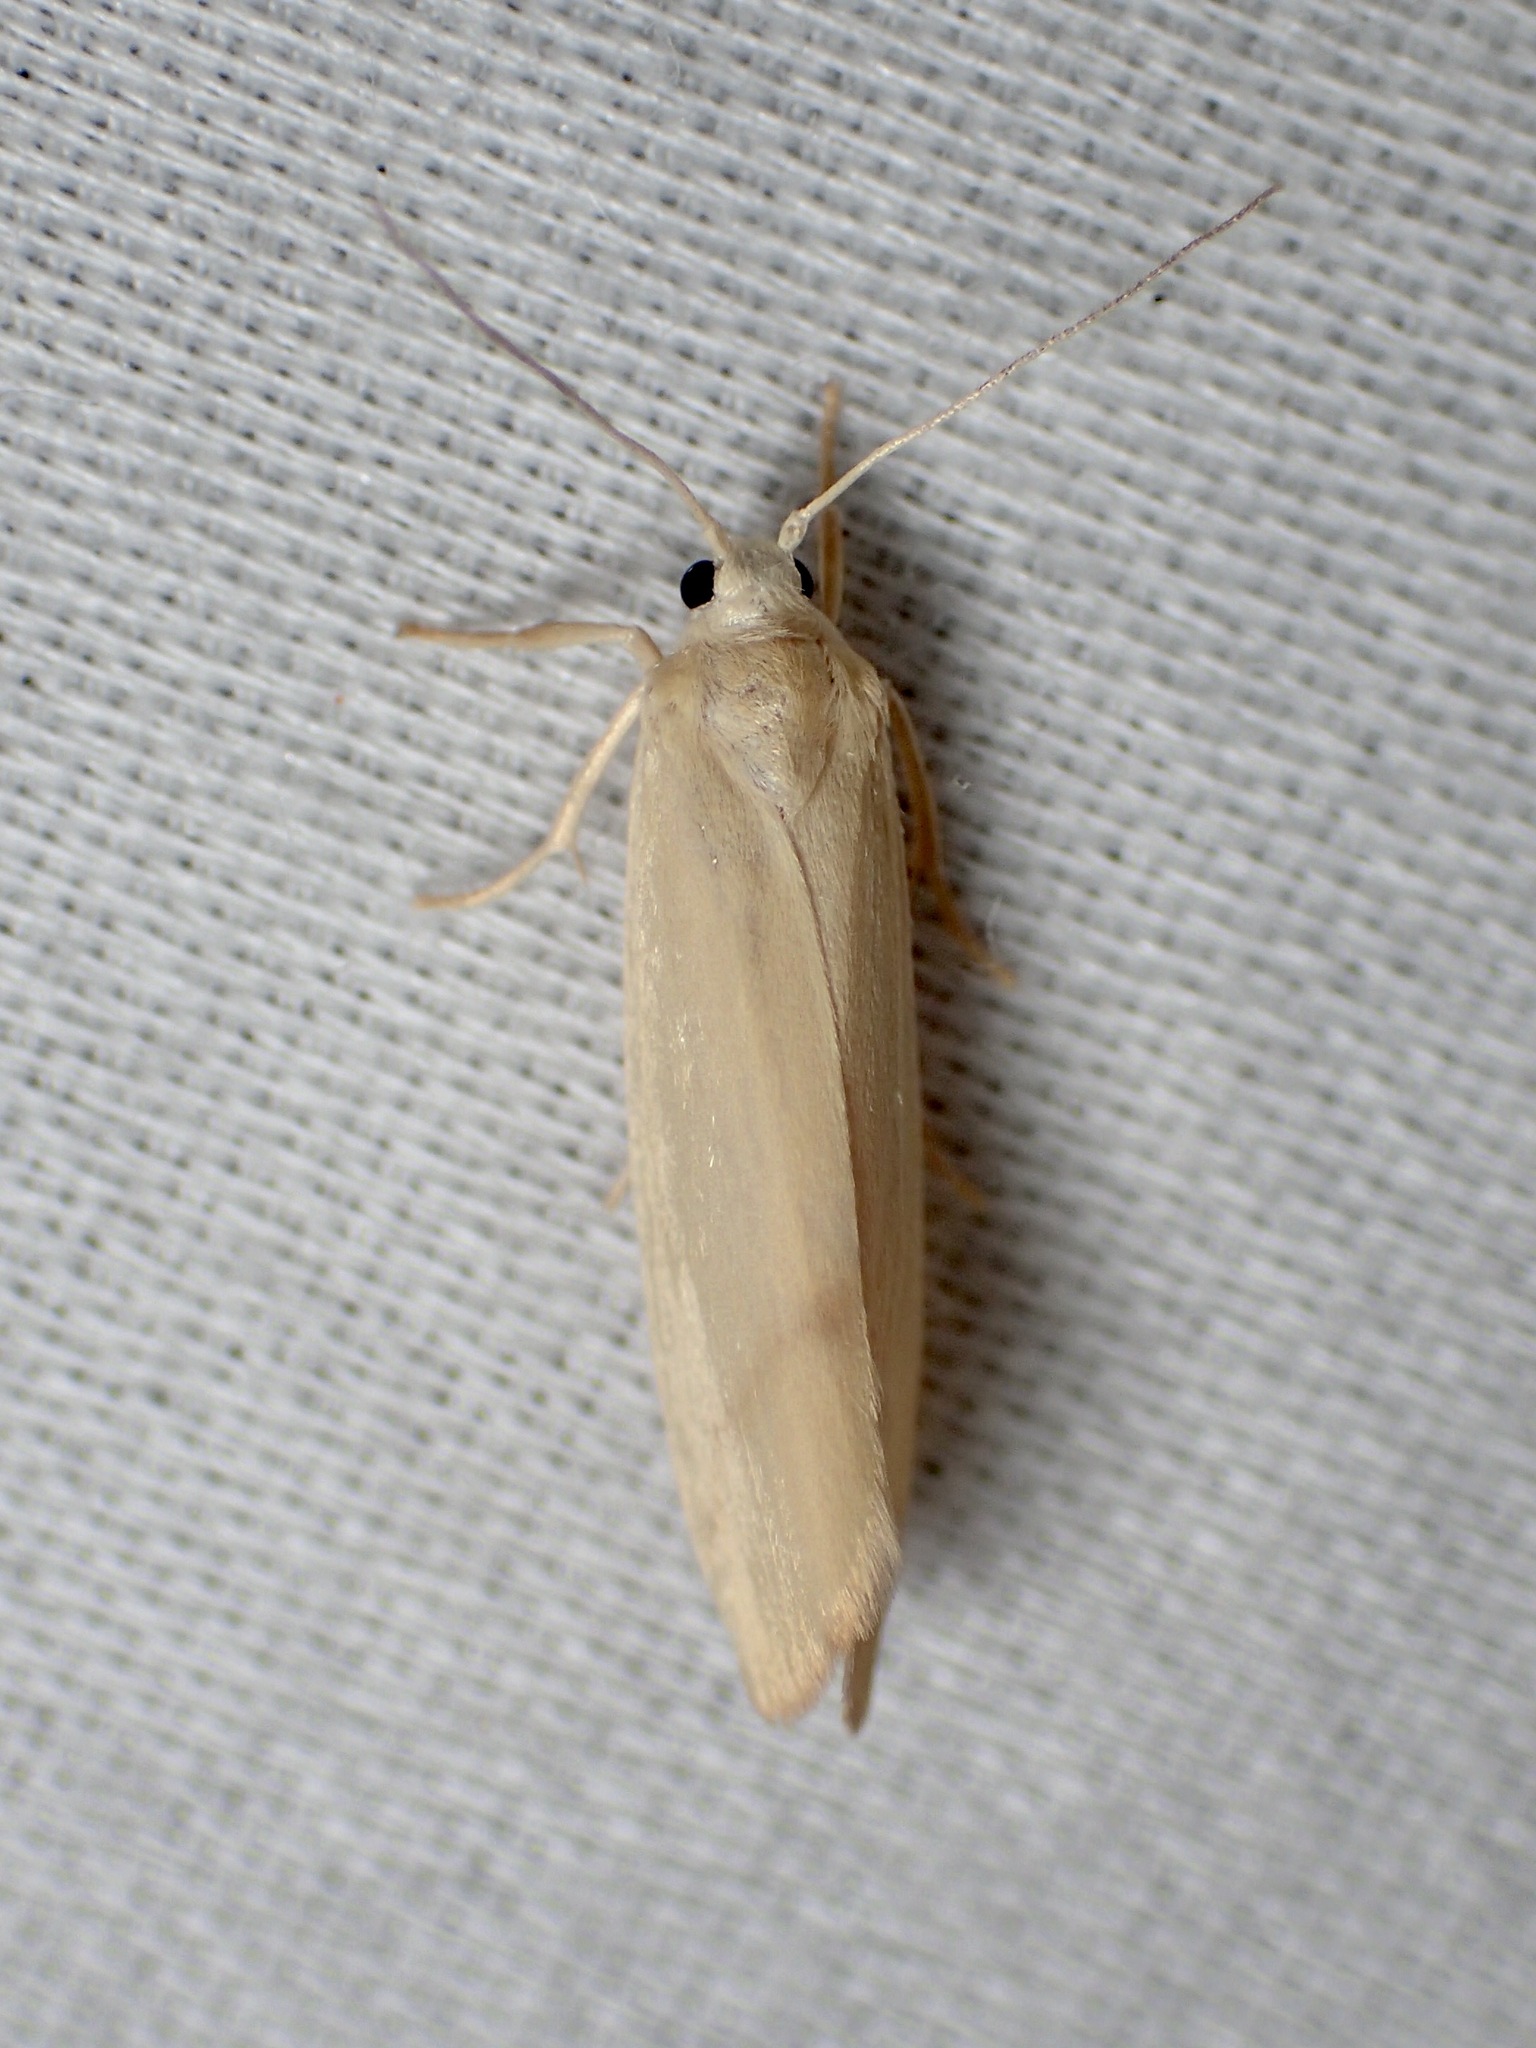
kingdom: Animalia
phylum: Arthropoda
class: Insecta
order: Lepidoptera
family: Erebidae
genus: Notata
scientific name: Notata modicus
